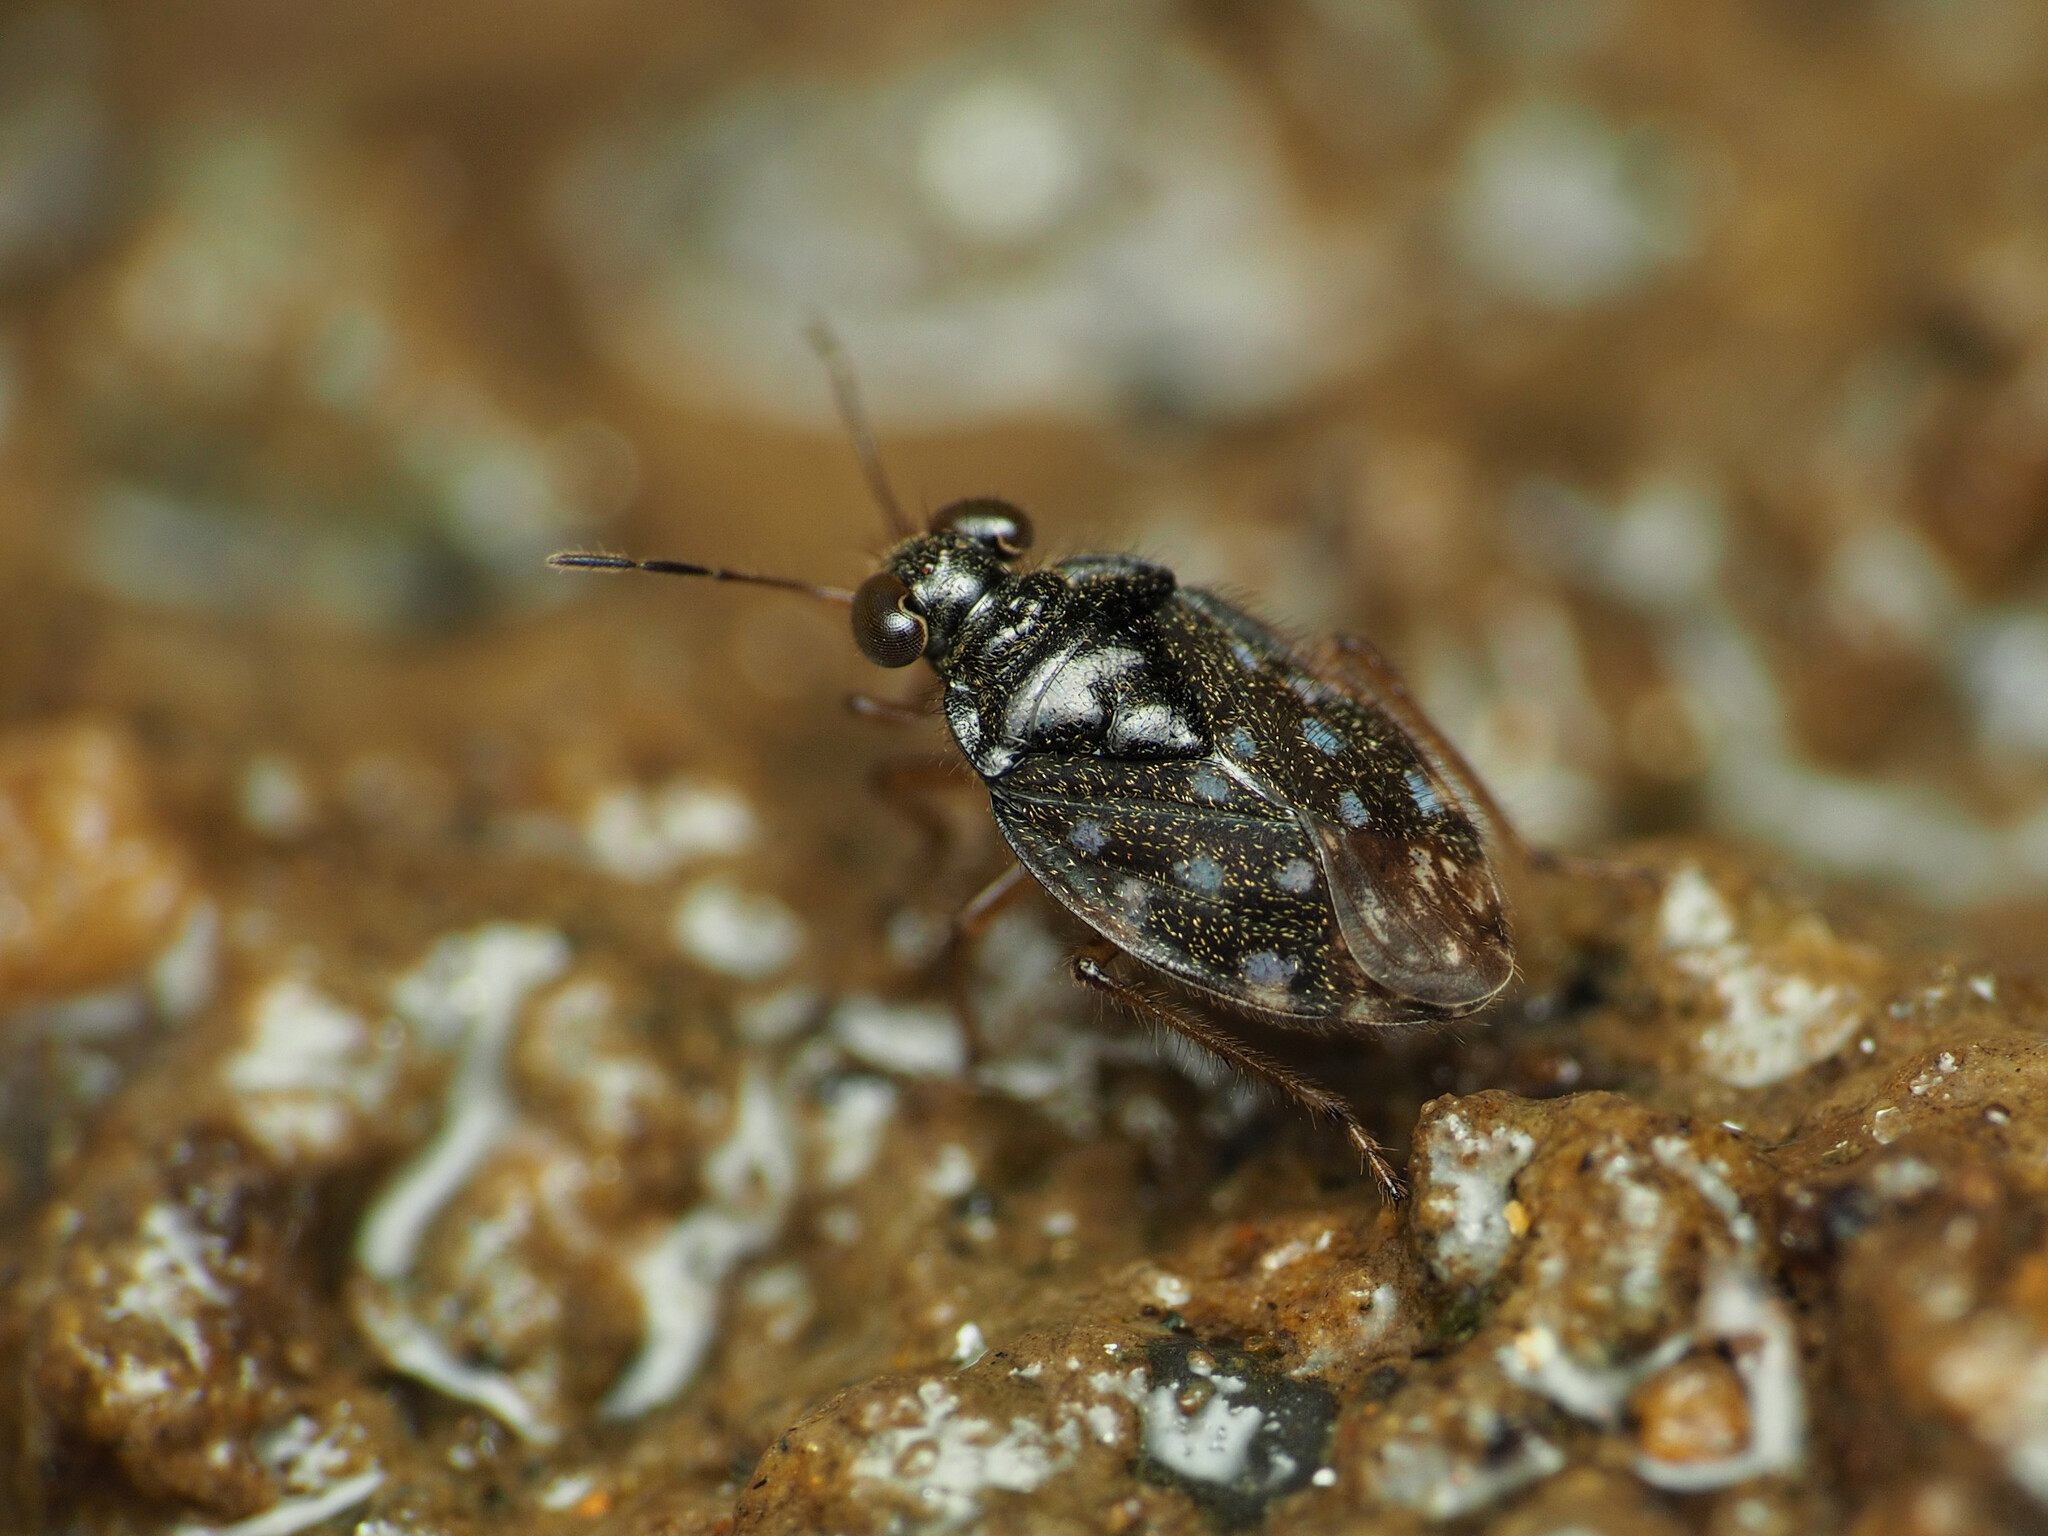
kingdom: Animalia
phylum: Arthropoda
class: Insecta
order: Hemiptera
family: Saldidae
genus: Saldula
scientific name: Saldula orbiculata
